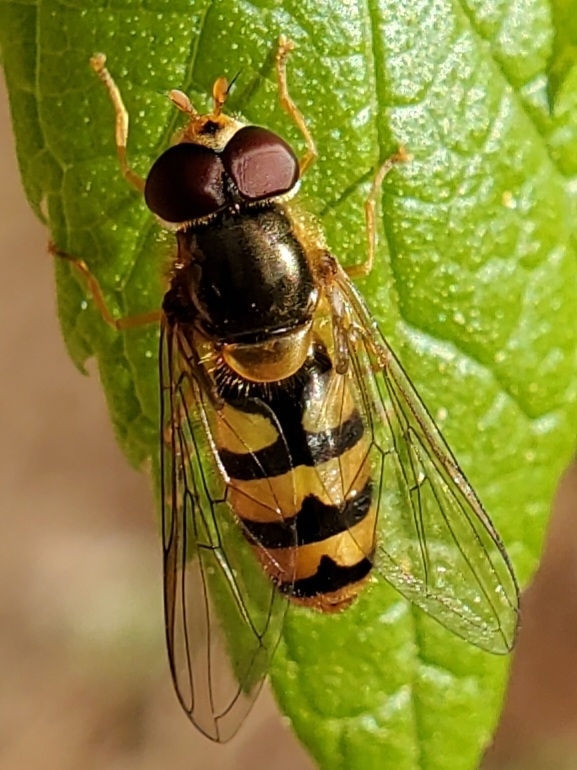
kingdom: Animalia
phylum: Arthropoda
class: Insecta
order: Diptera
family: Syrphidae
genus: Epistrophe
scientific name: Epistrophe xanthostoma
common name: Emarginate smoothtail
